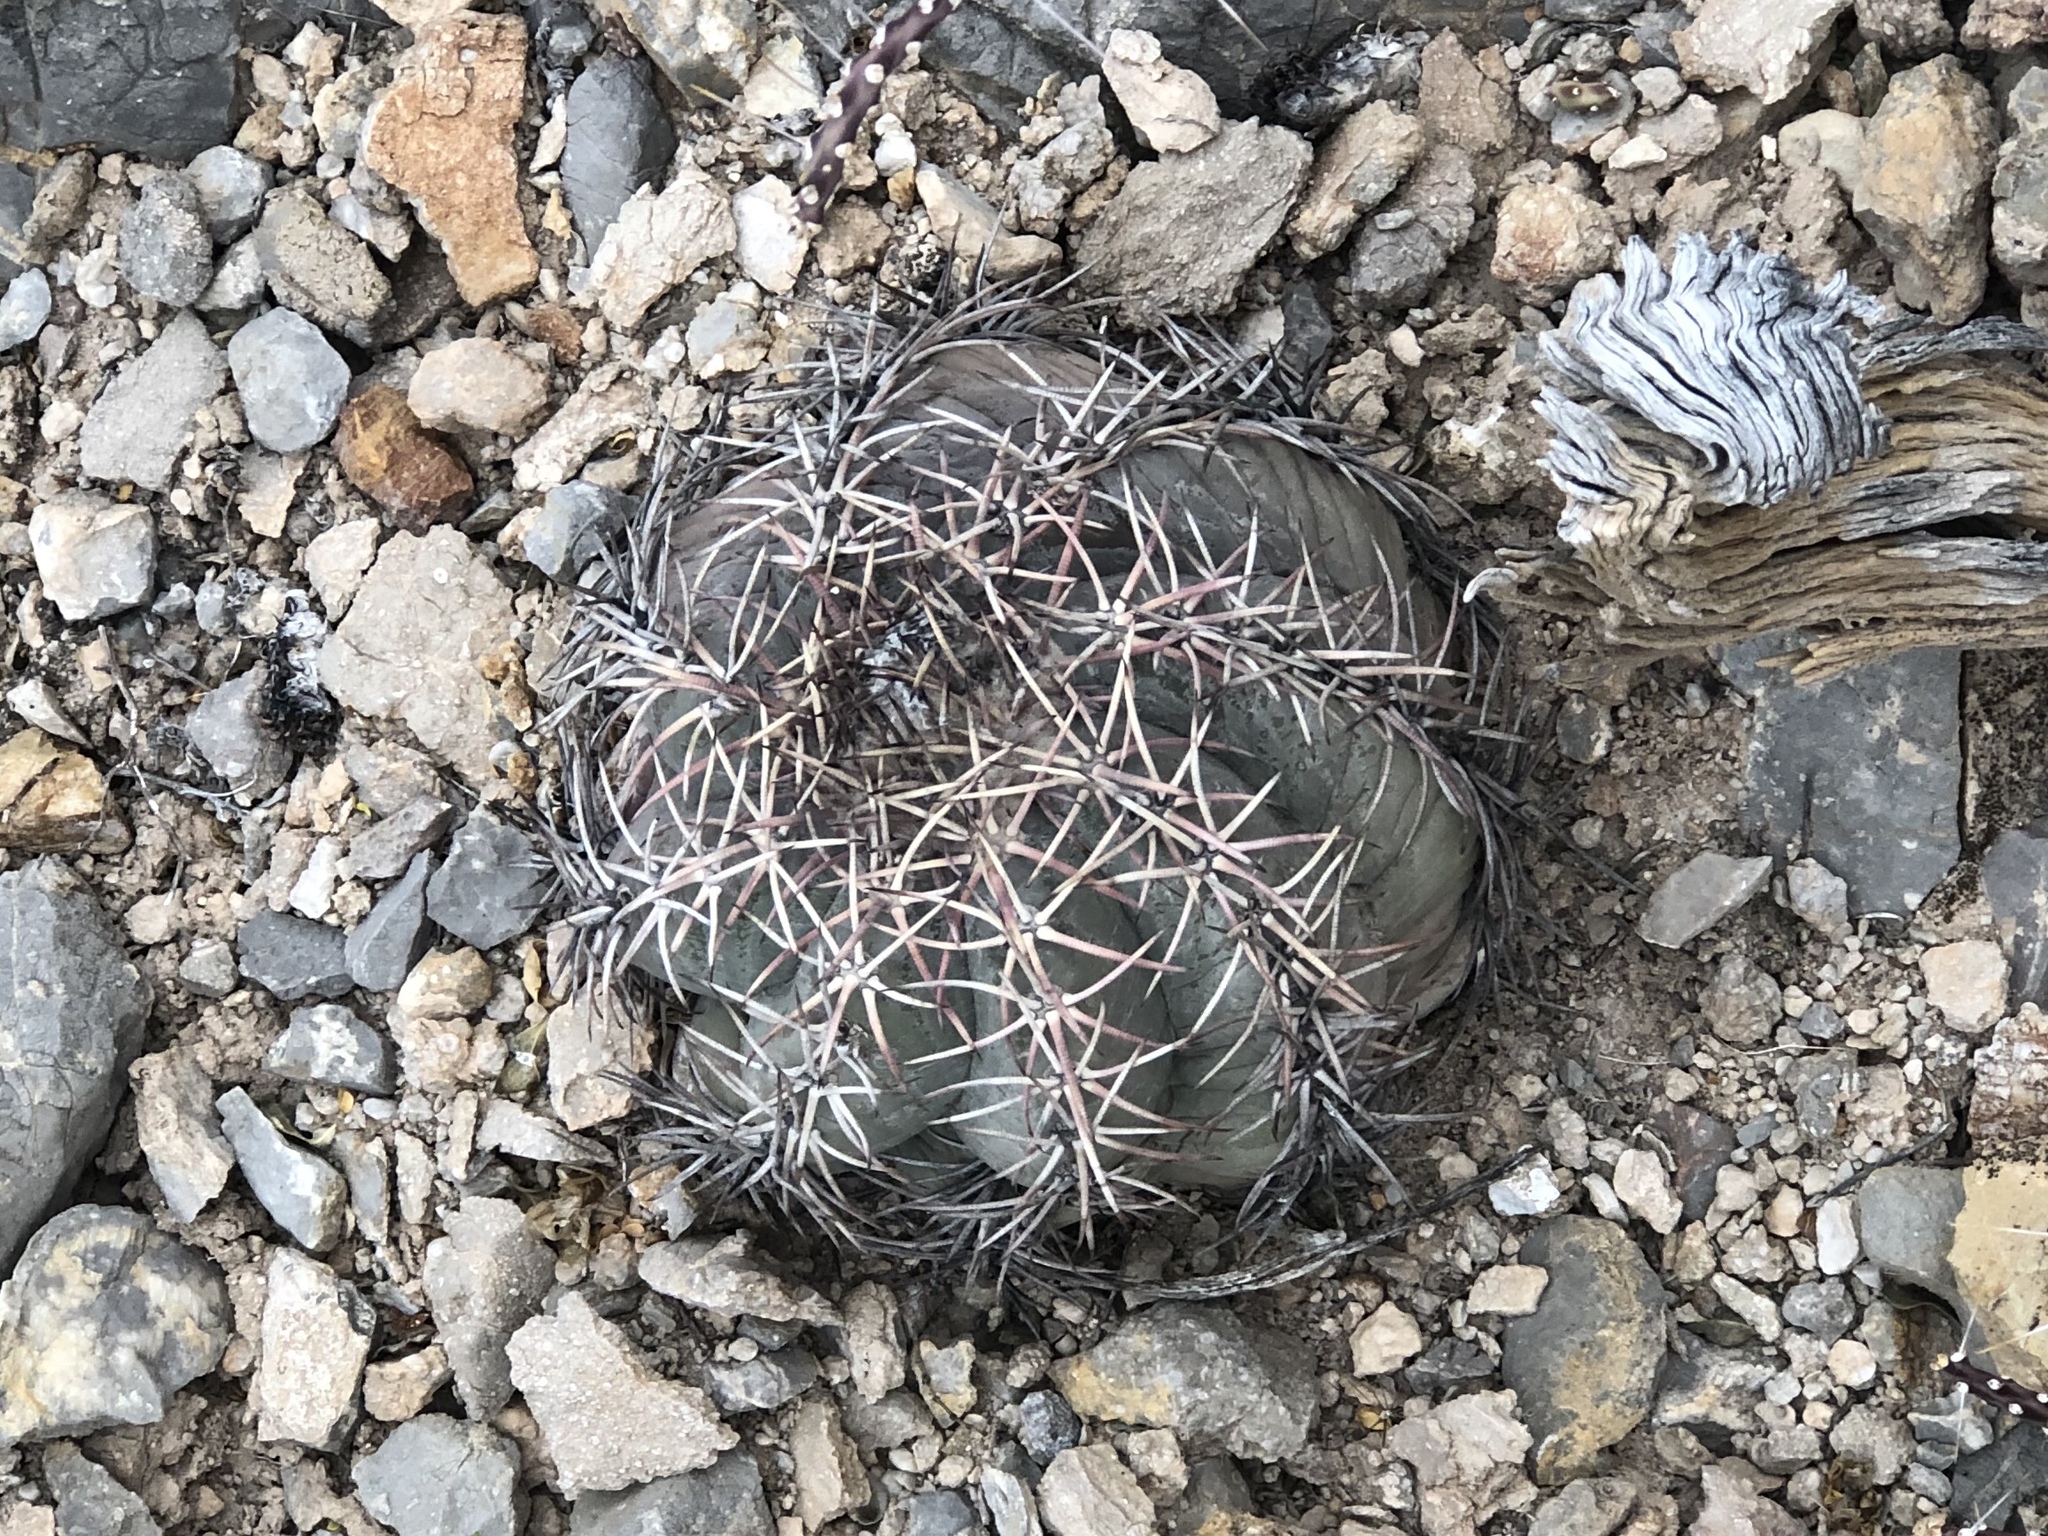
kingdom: Plantae
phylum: Tracheophyta
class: Magnoliopsida
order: Caryophyllales
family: Cactaceae
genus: Echinocactus
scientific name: Echinocactus horizonthalonius
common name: Devilshead
